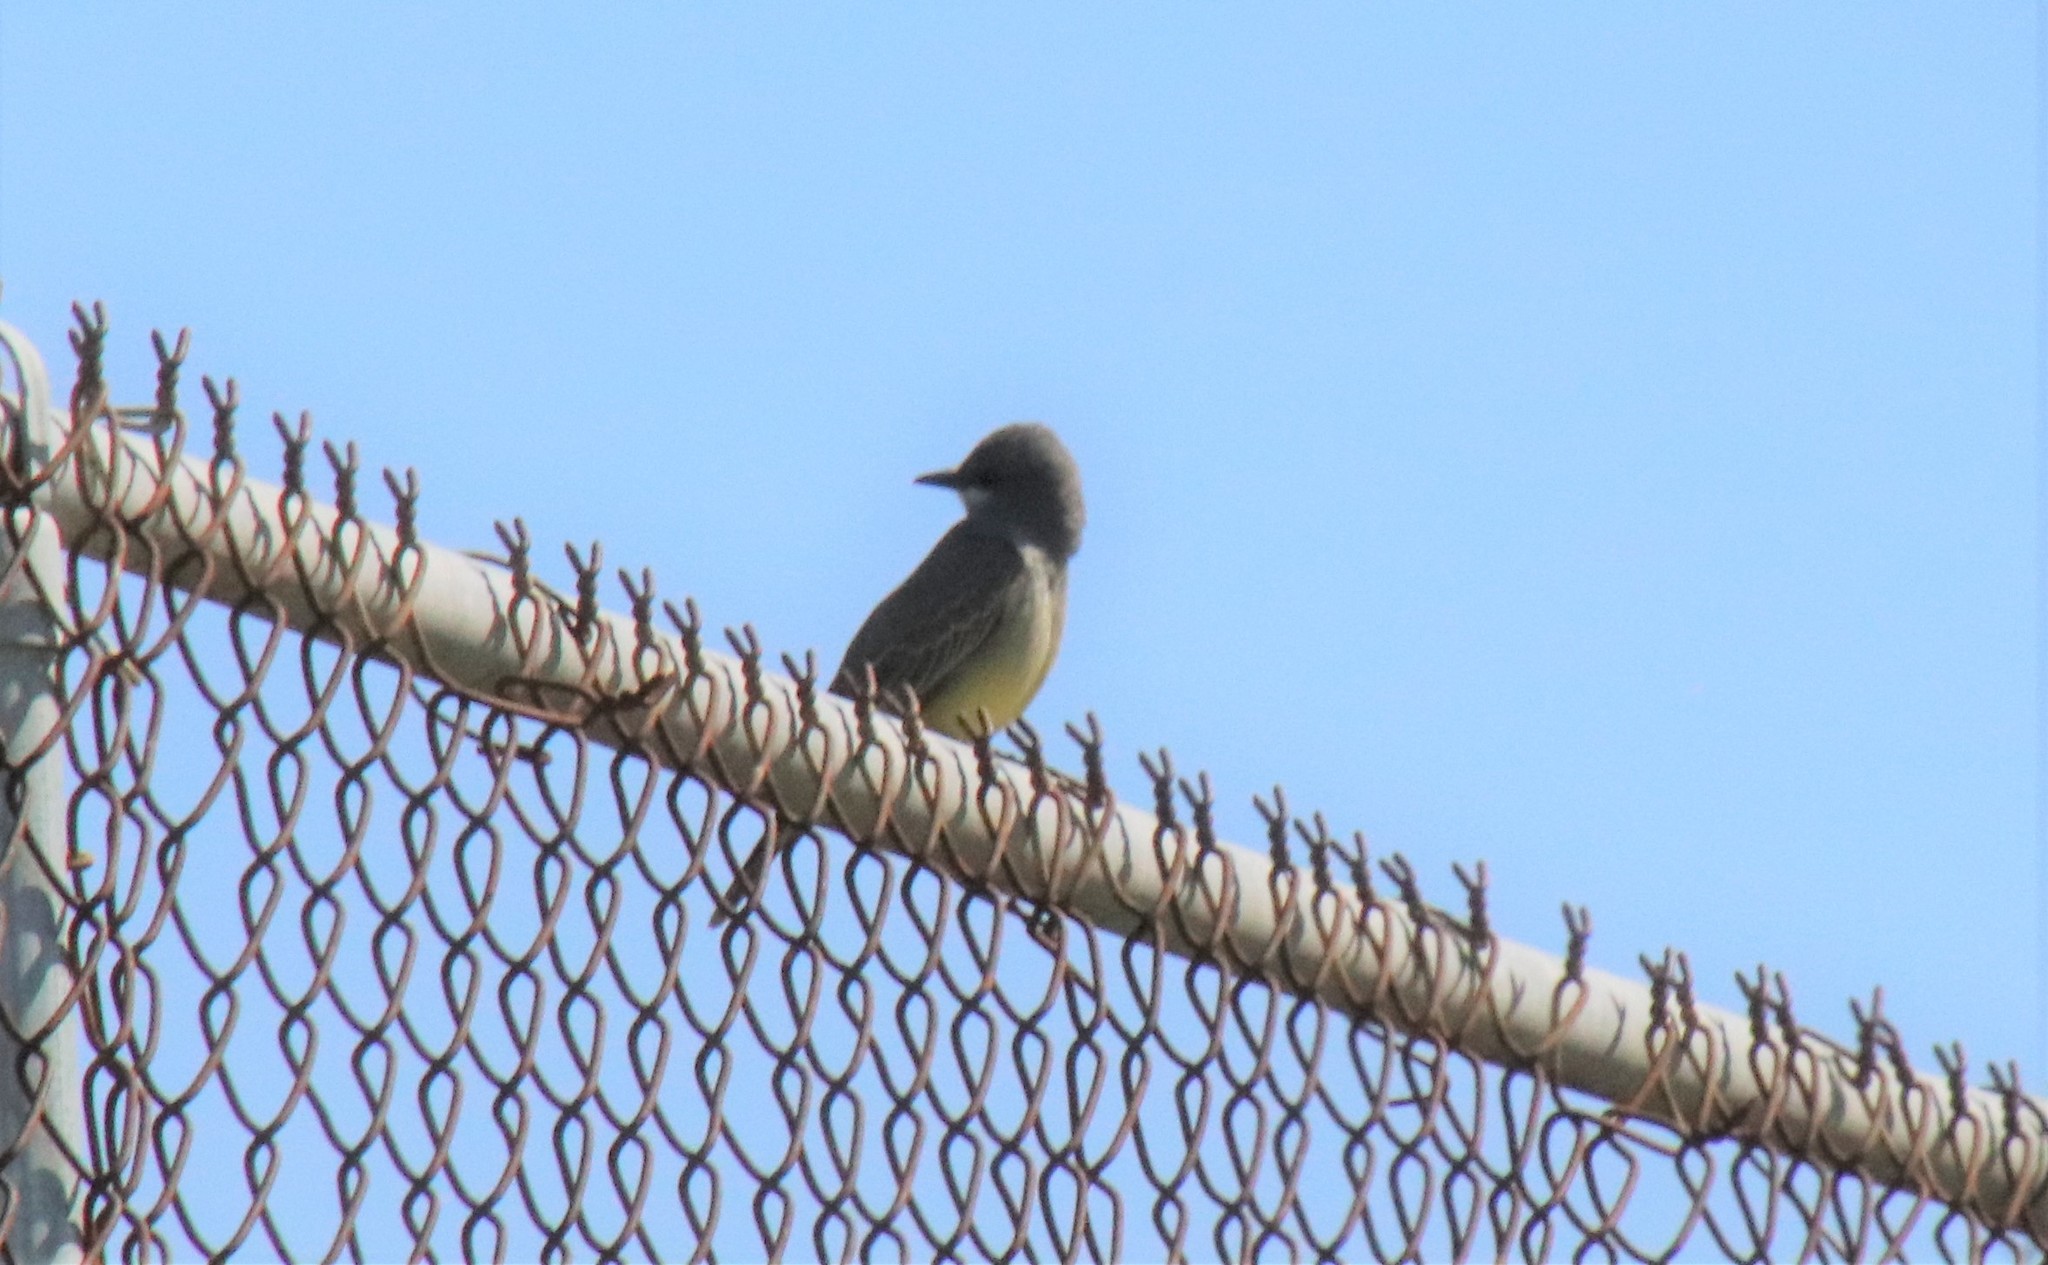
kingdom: Animalia
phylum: Chordata
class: Aves
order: Passeriformes
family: Tyrannidae
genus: Tyrannus
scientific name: Tyrannus vociferans
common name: Cassin's kingbird
